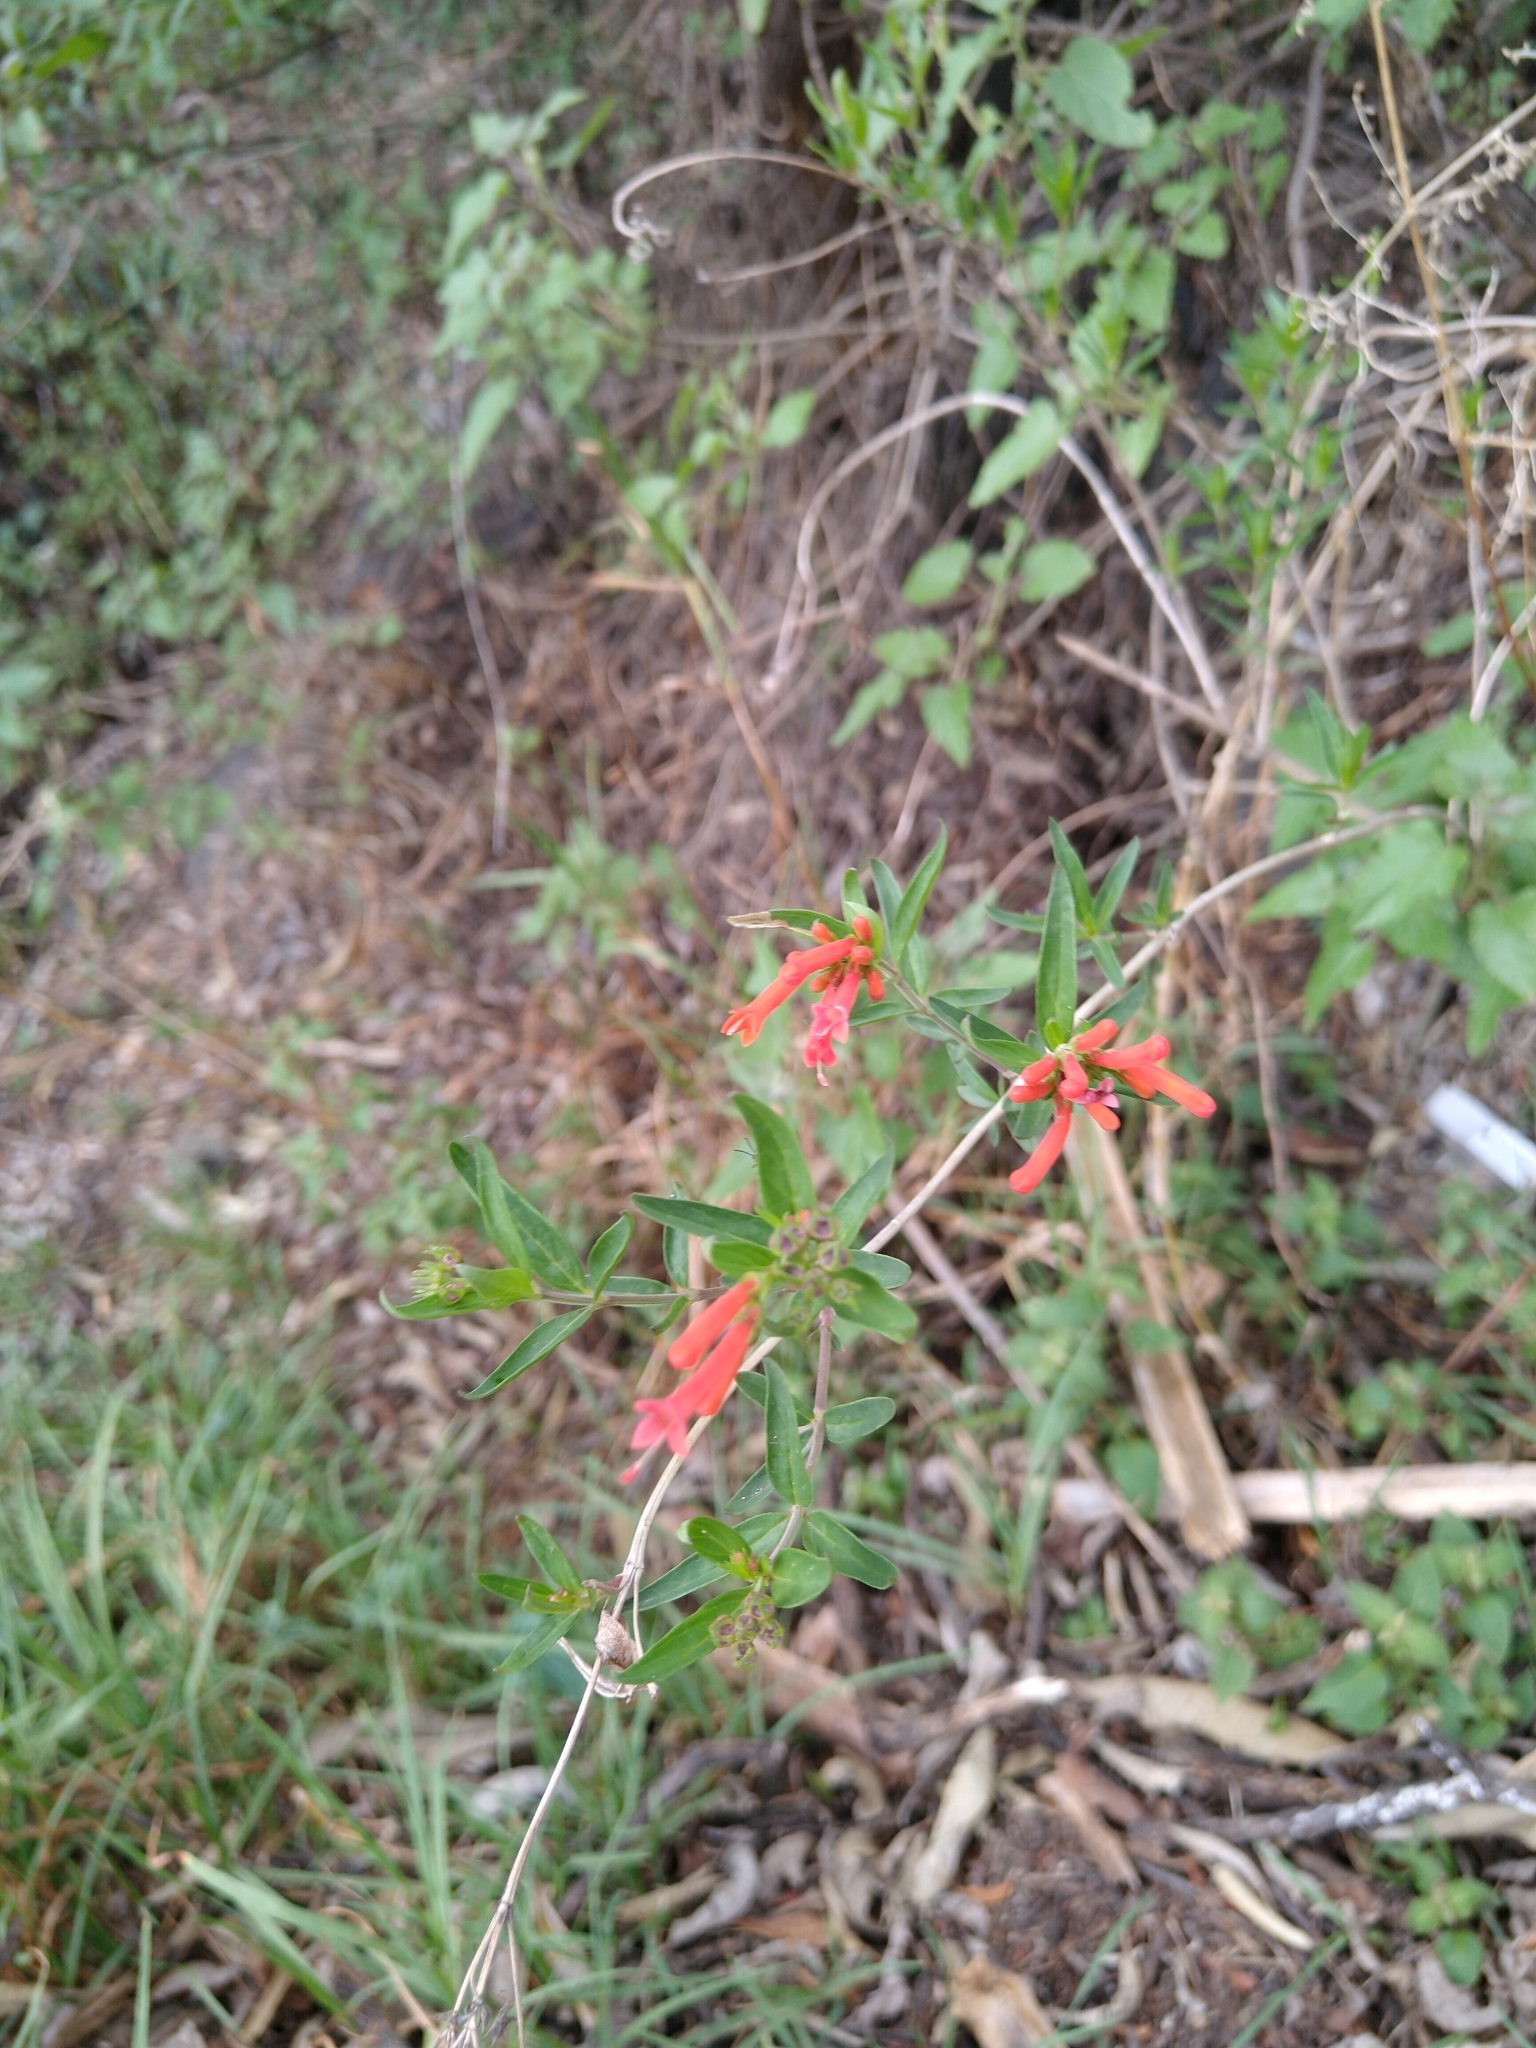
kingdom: Plantae
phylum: Tracheophyta
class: Magnoliopsida
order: Gentianales
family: Rubiaceae
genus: Bouvardia
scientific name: Bouvardia ternifolia
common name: Scarlet bouvardia
